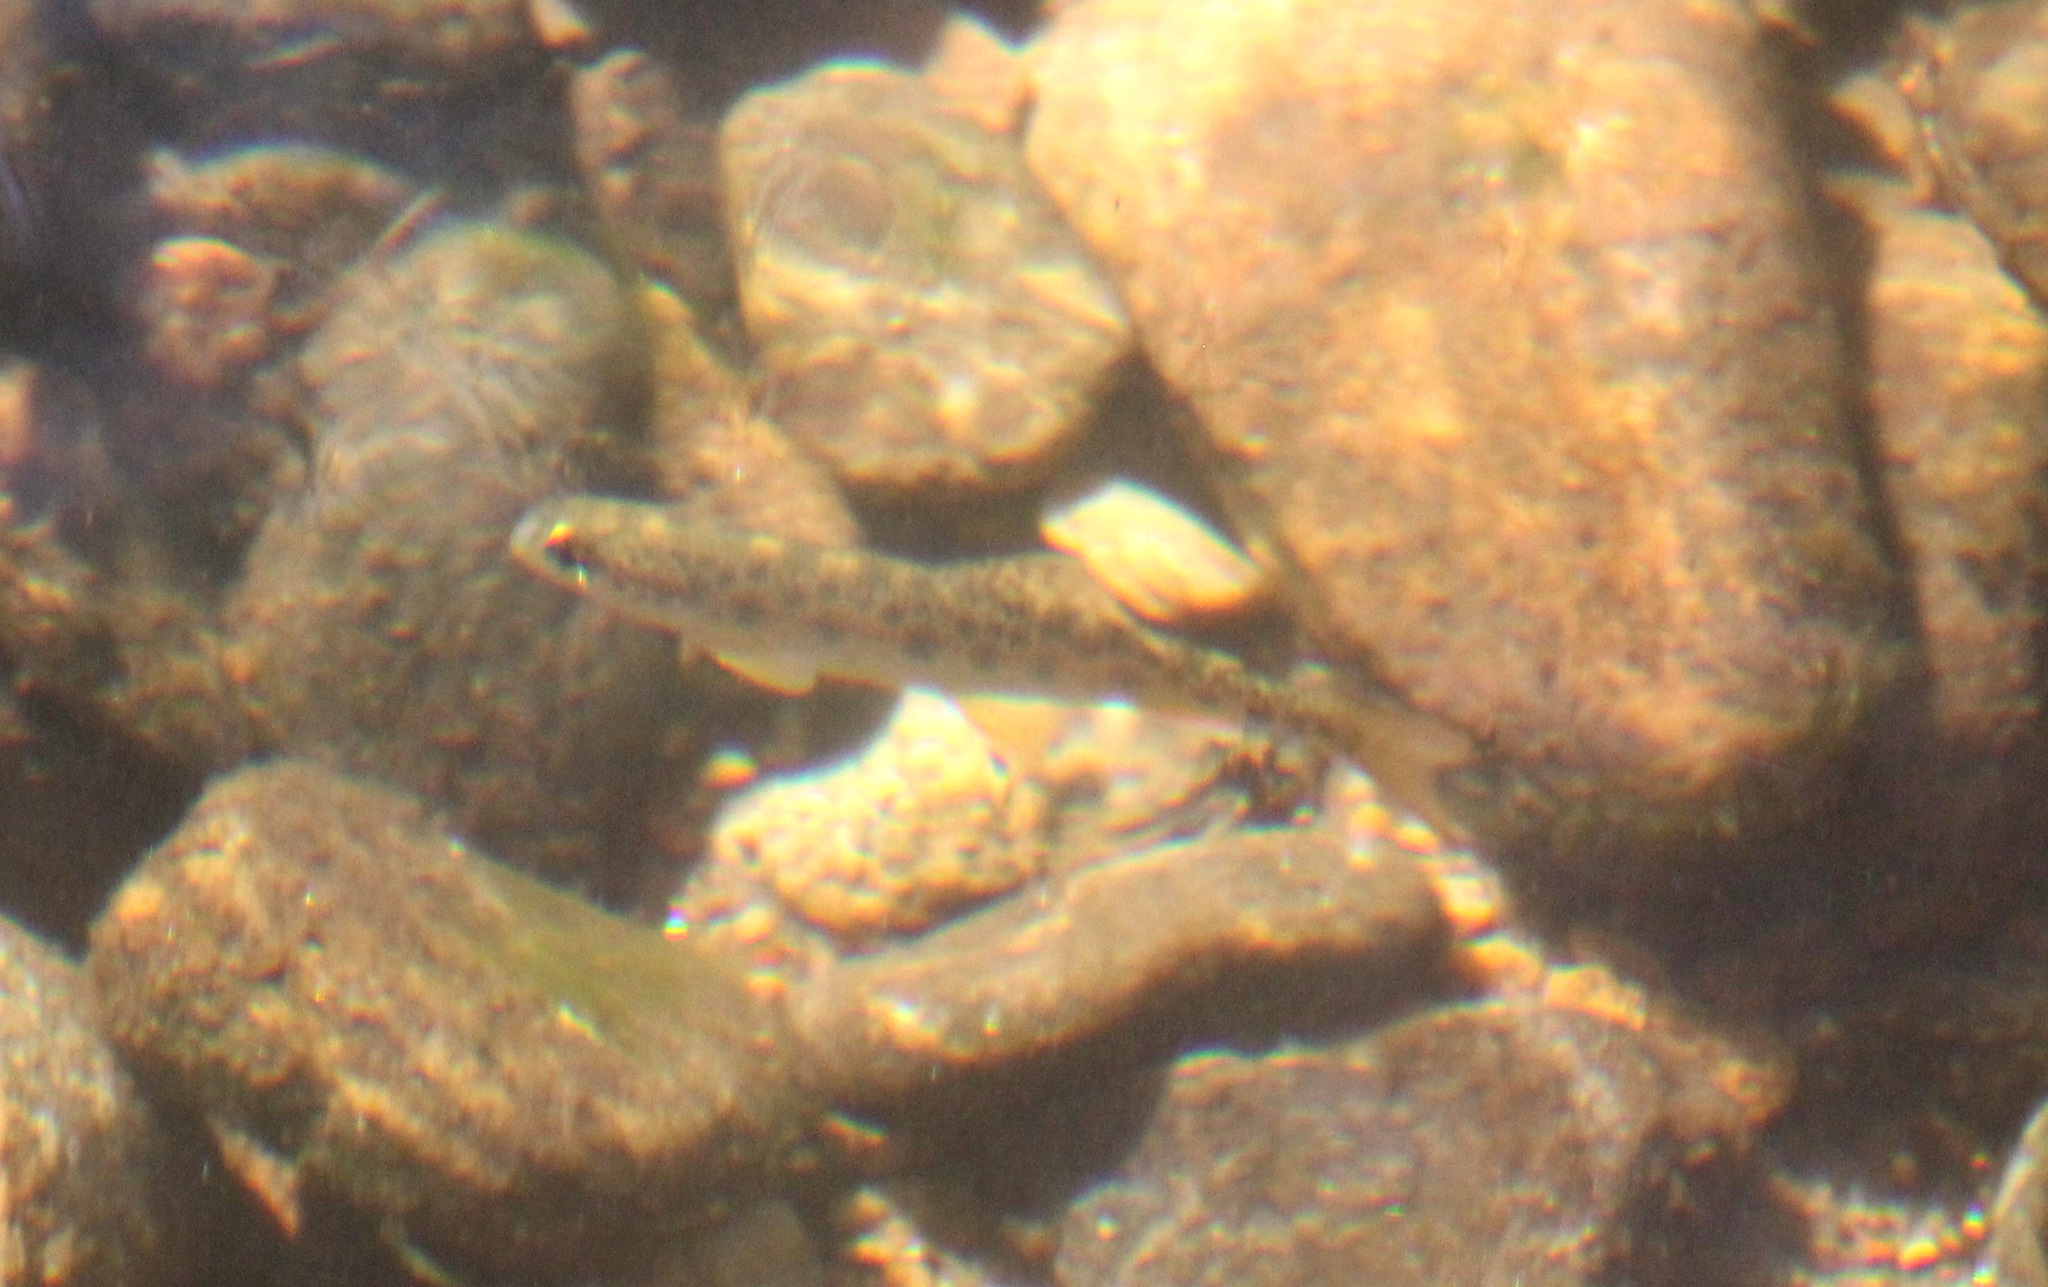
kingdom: Animalia
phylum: Chordata
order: Salmoniformes
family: Salmonidae
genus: Oncorhynchus
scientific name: Oncorhynchus mykiss
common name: Rainbow trout
